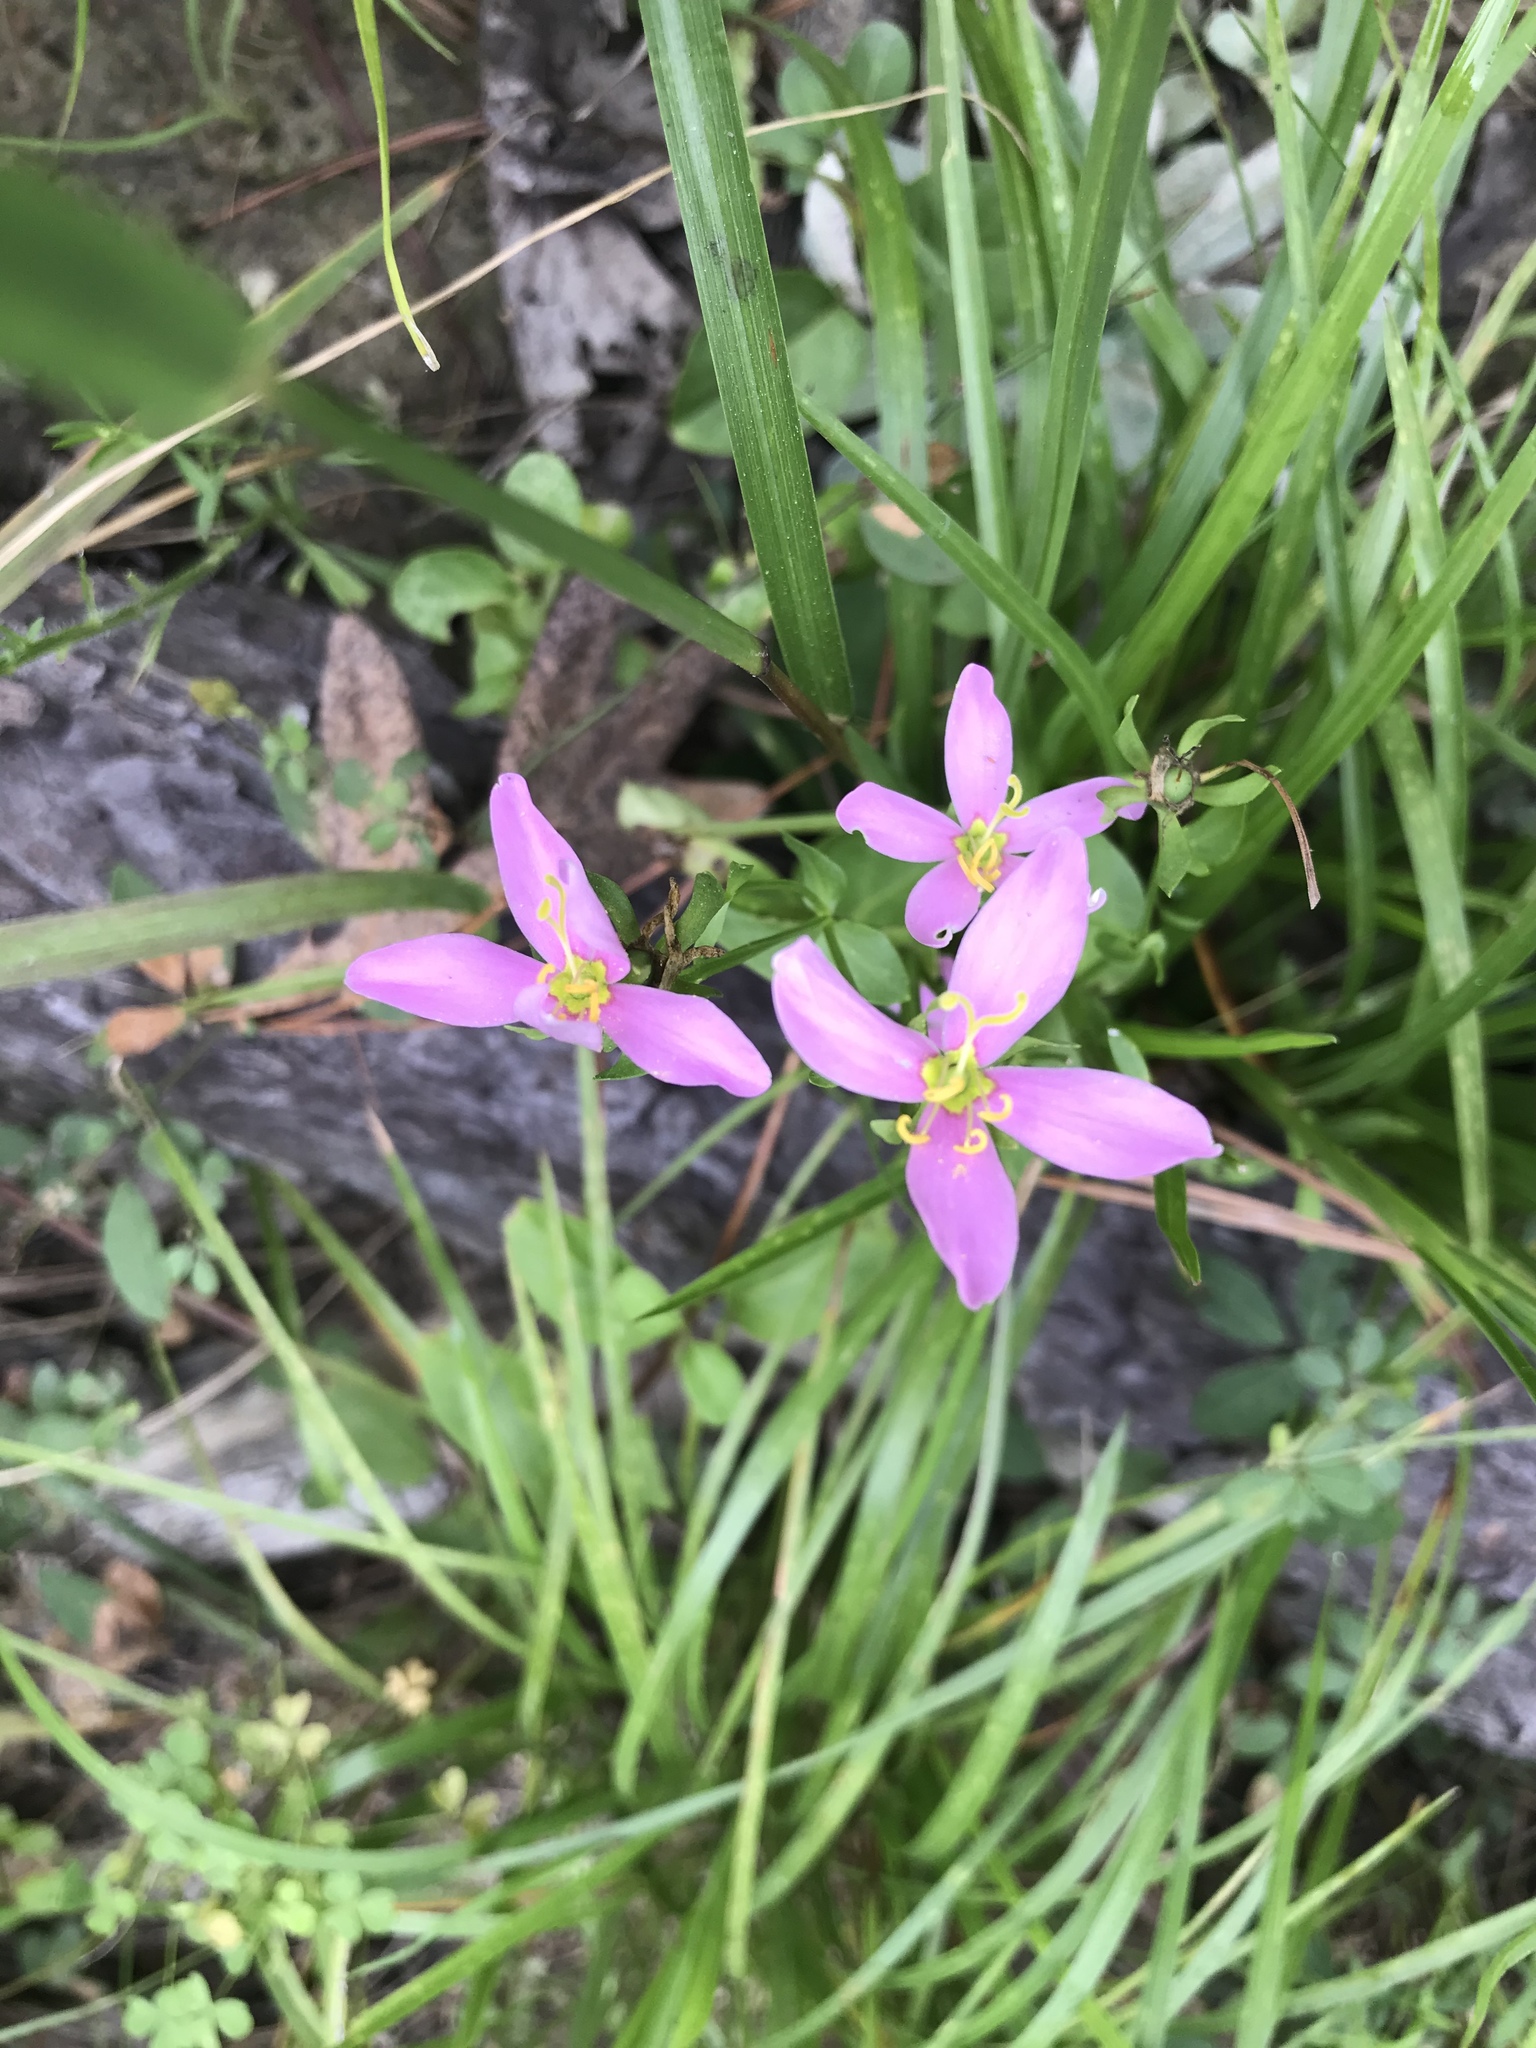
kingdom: Plantae
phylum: Tracheophyta
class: Magnoliopsida
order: Gentianales
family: Gentianaceae
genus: Sabatia
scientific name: Sabatia angularis
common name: Rose-pink
